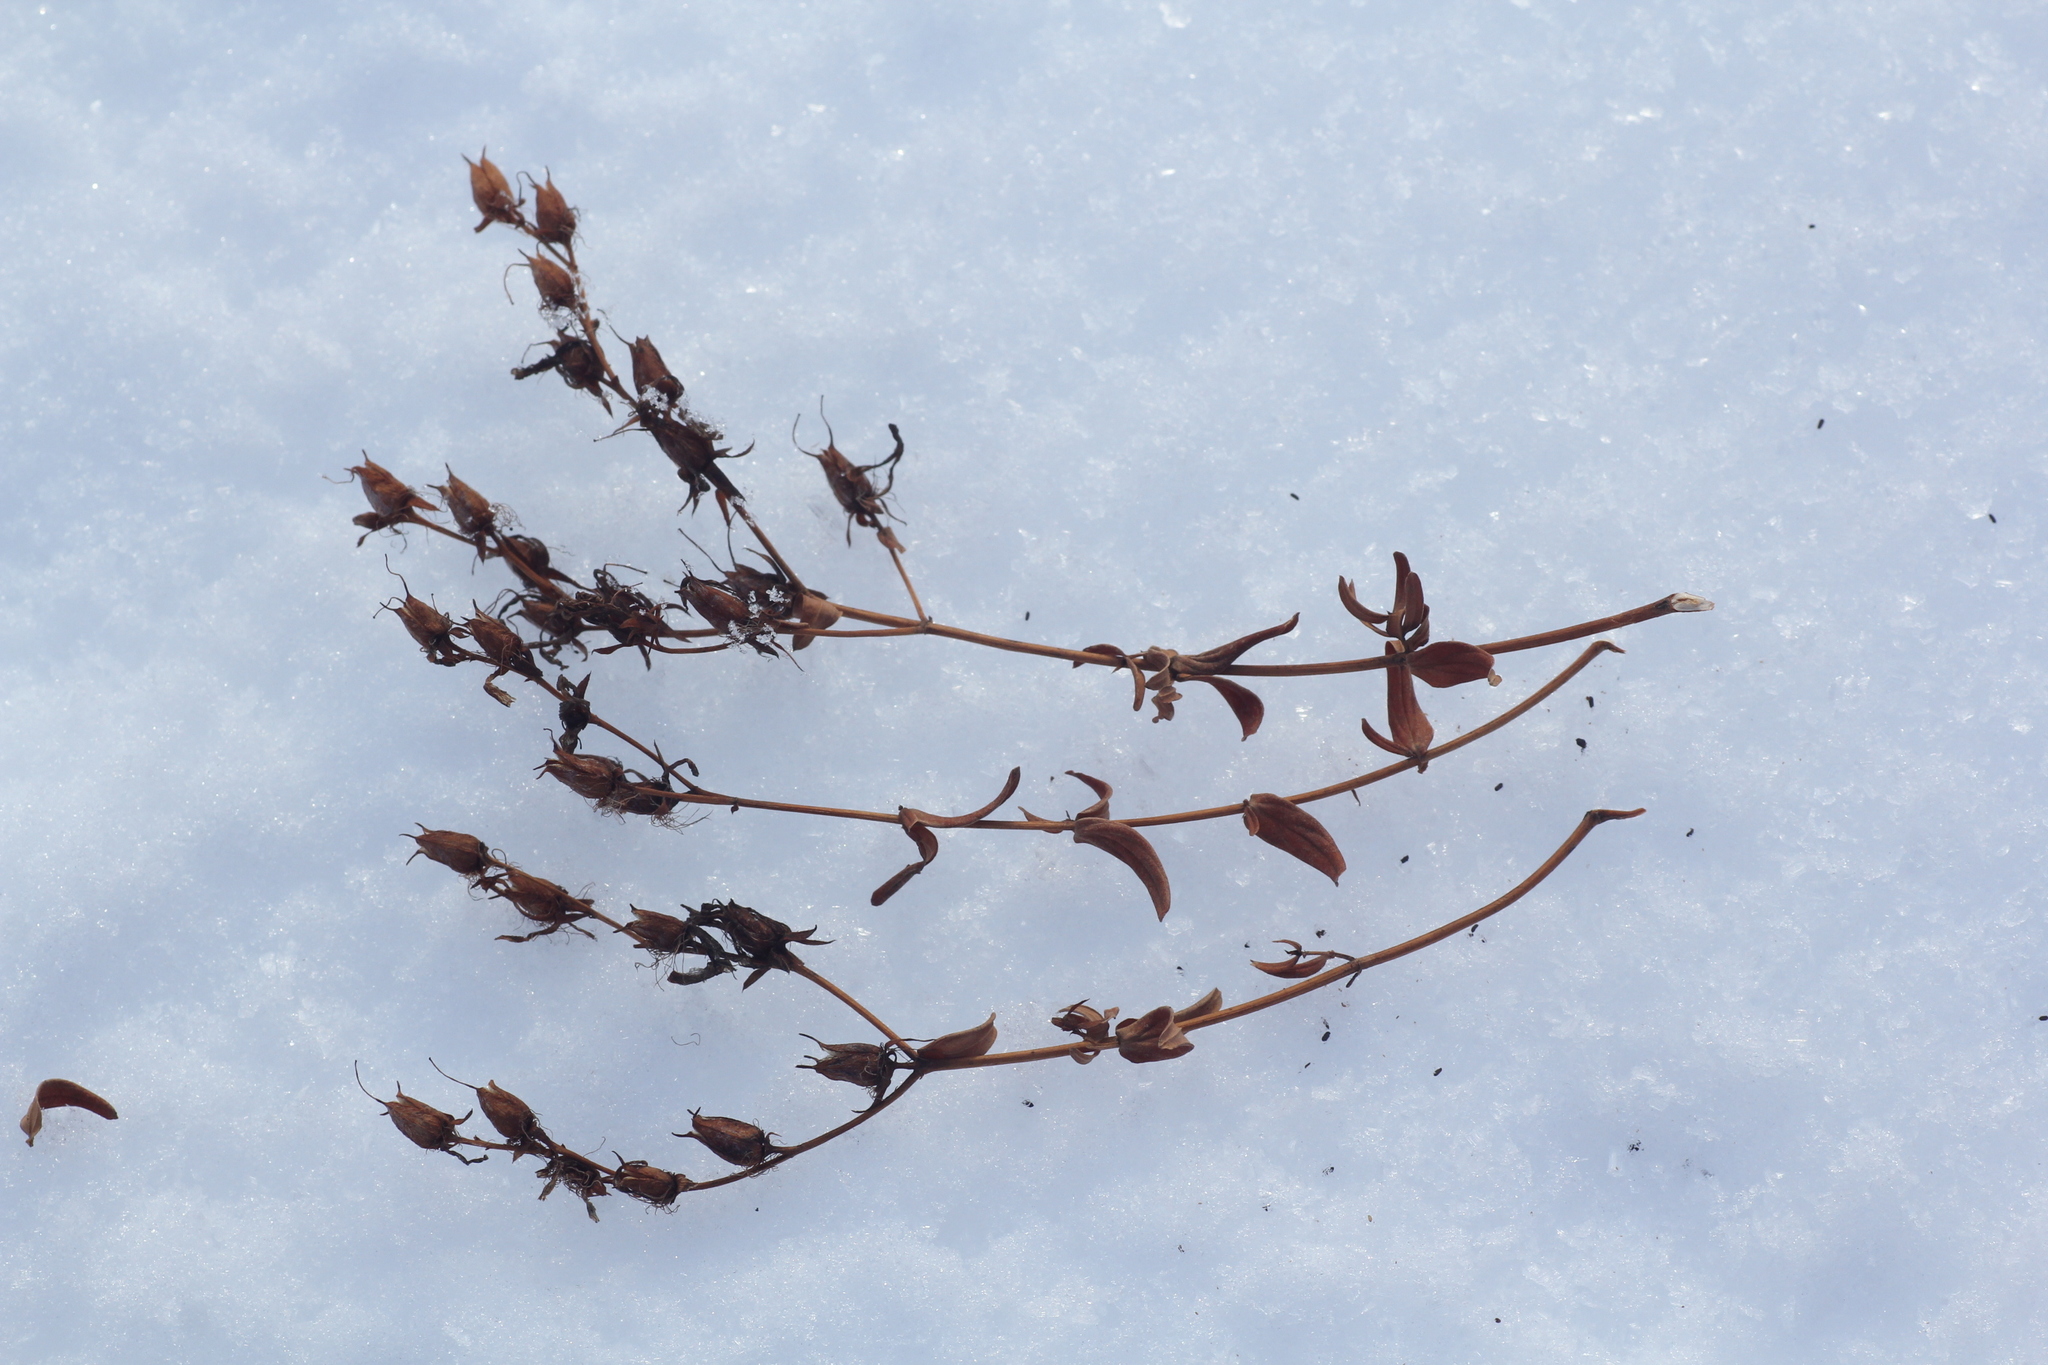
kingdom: Plantae
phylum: Tracheophyta
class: Magnoliopsida
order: Malpighiales
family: Hypericaceae
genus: Hypericum
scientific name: Hypericum perforatum
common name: Common st. johnswort
